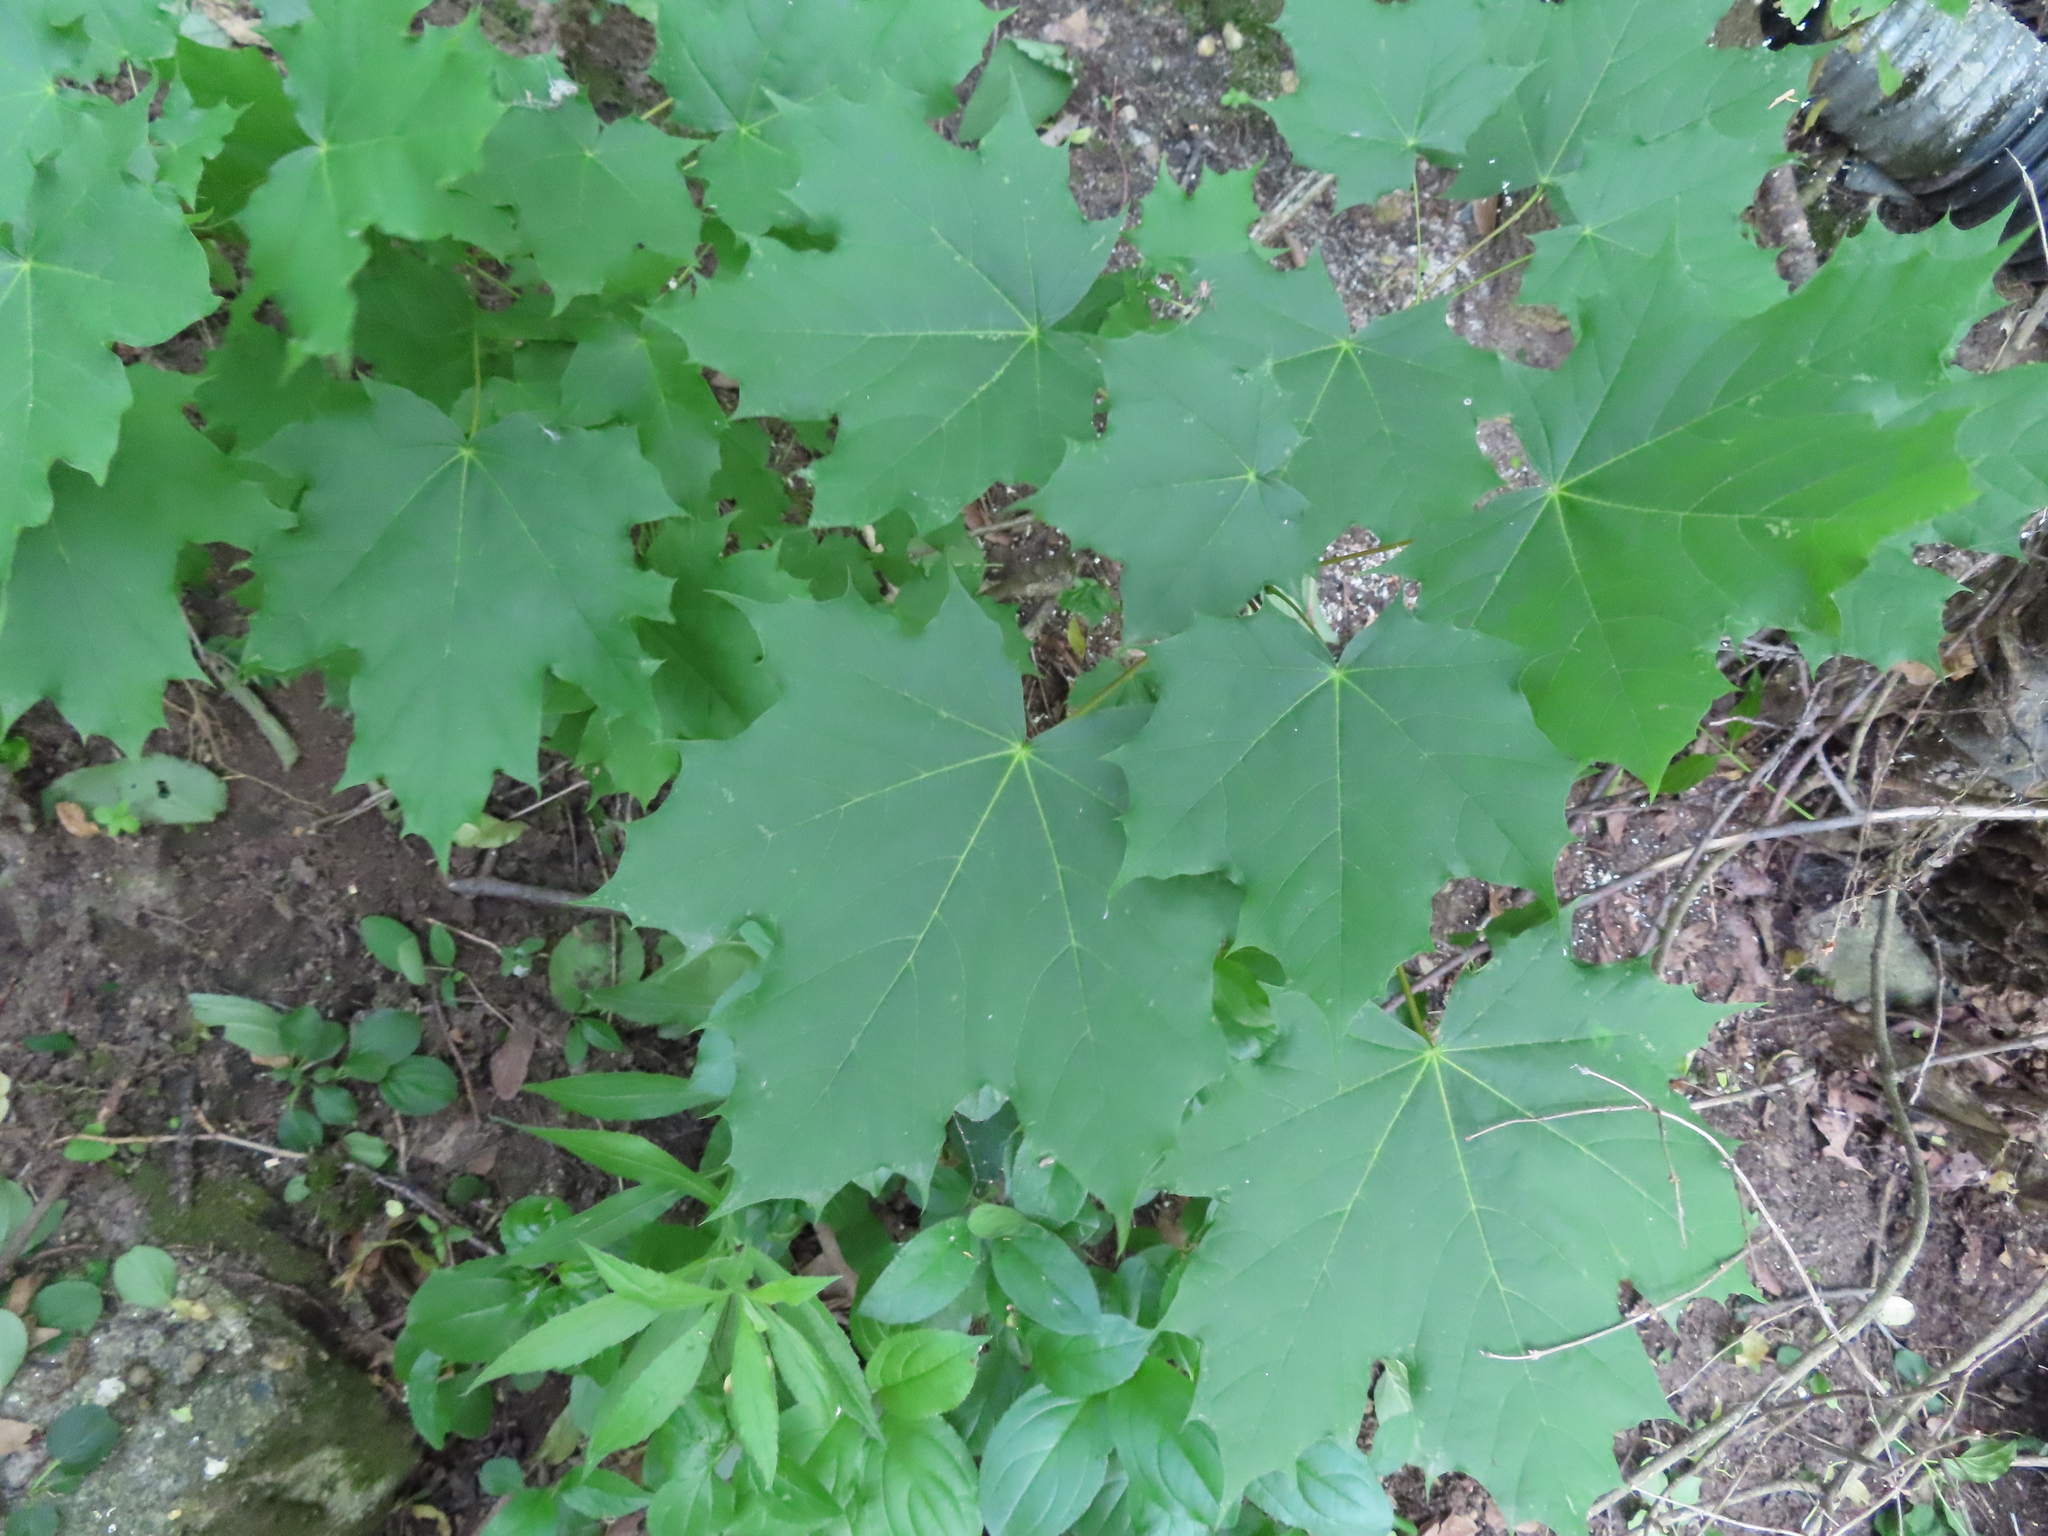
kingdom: Plantae
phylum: Tracheophyta
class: Magnoliopsida
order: Sapindales
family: Sapindaceae
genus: Acer
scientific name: Acer platanoides
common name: Norway maple
